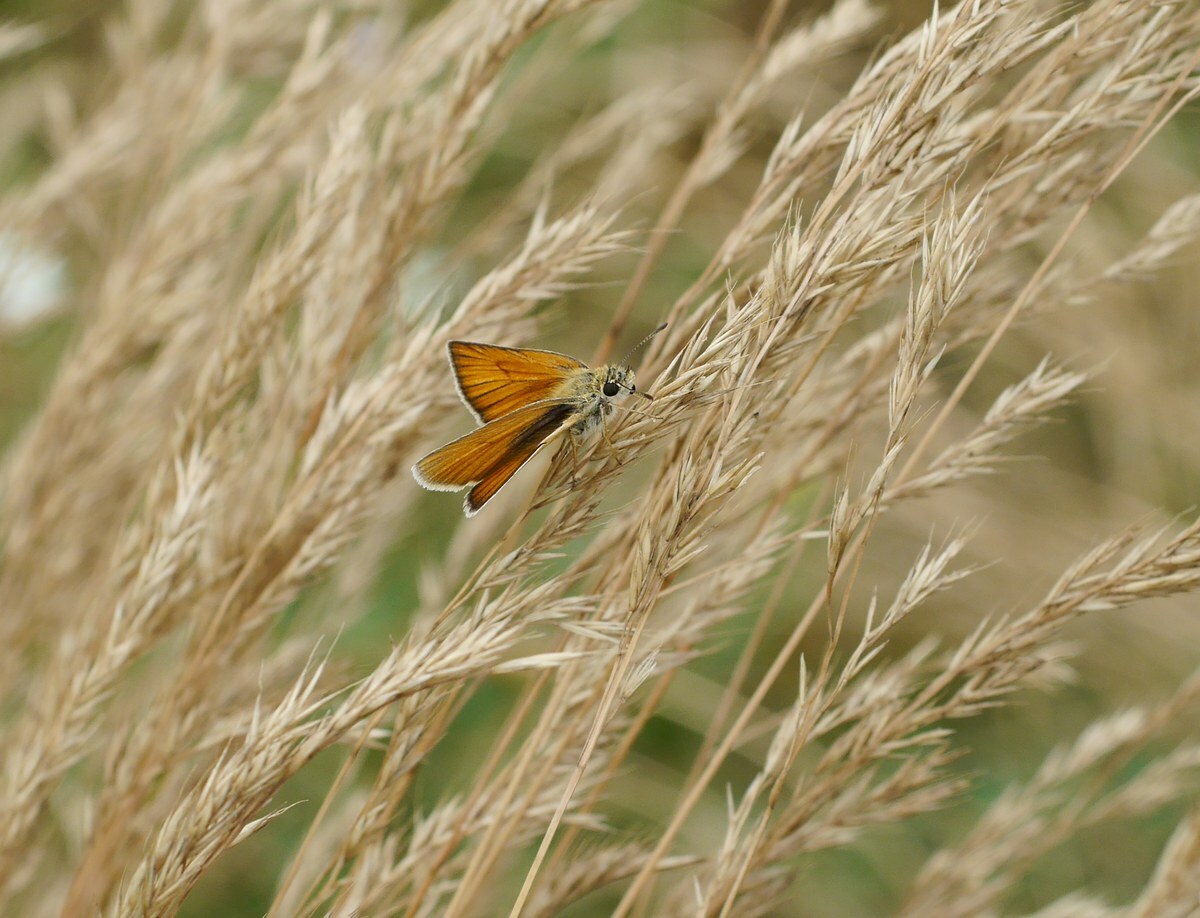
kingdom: Animalia
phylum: Arthropoda
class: Insecta
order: Lepidoptera
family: Hesperiidae
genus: Thymelicus
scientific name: Thymelicus lineola
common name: Essex skipper
